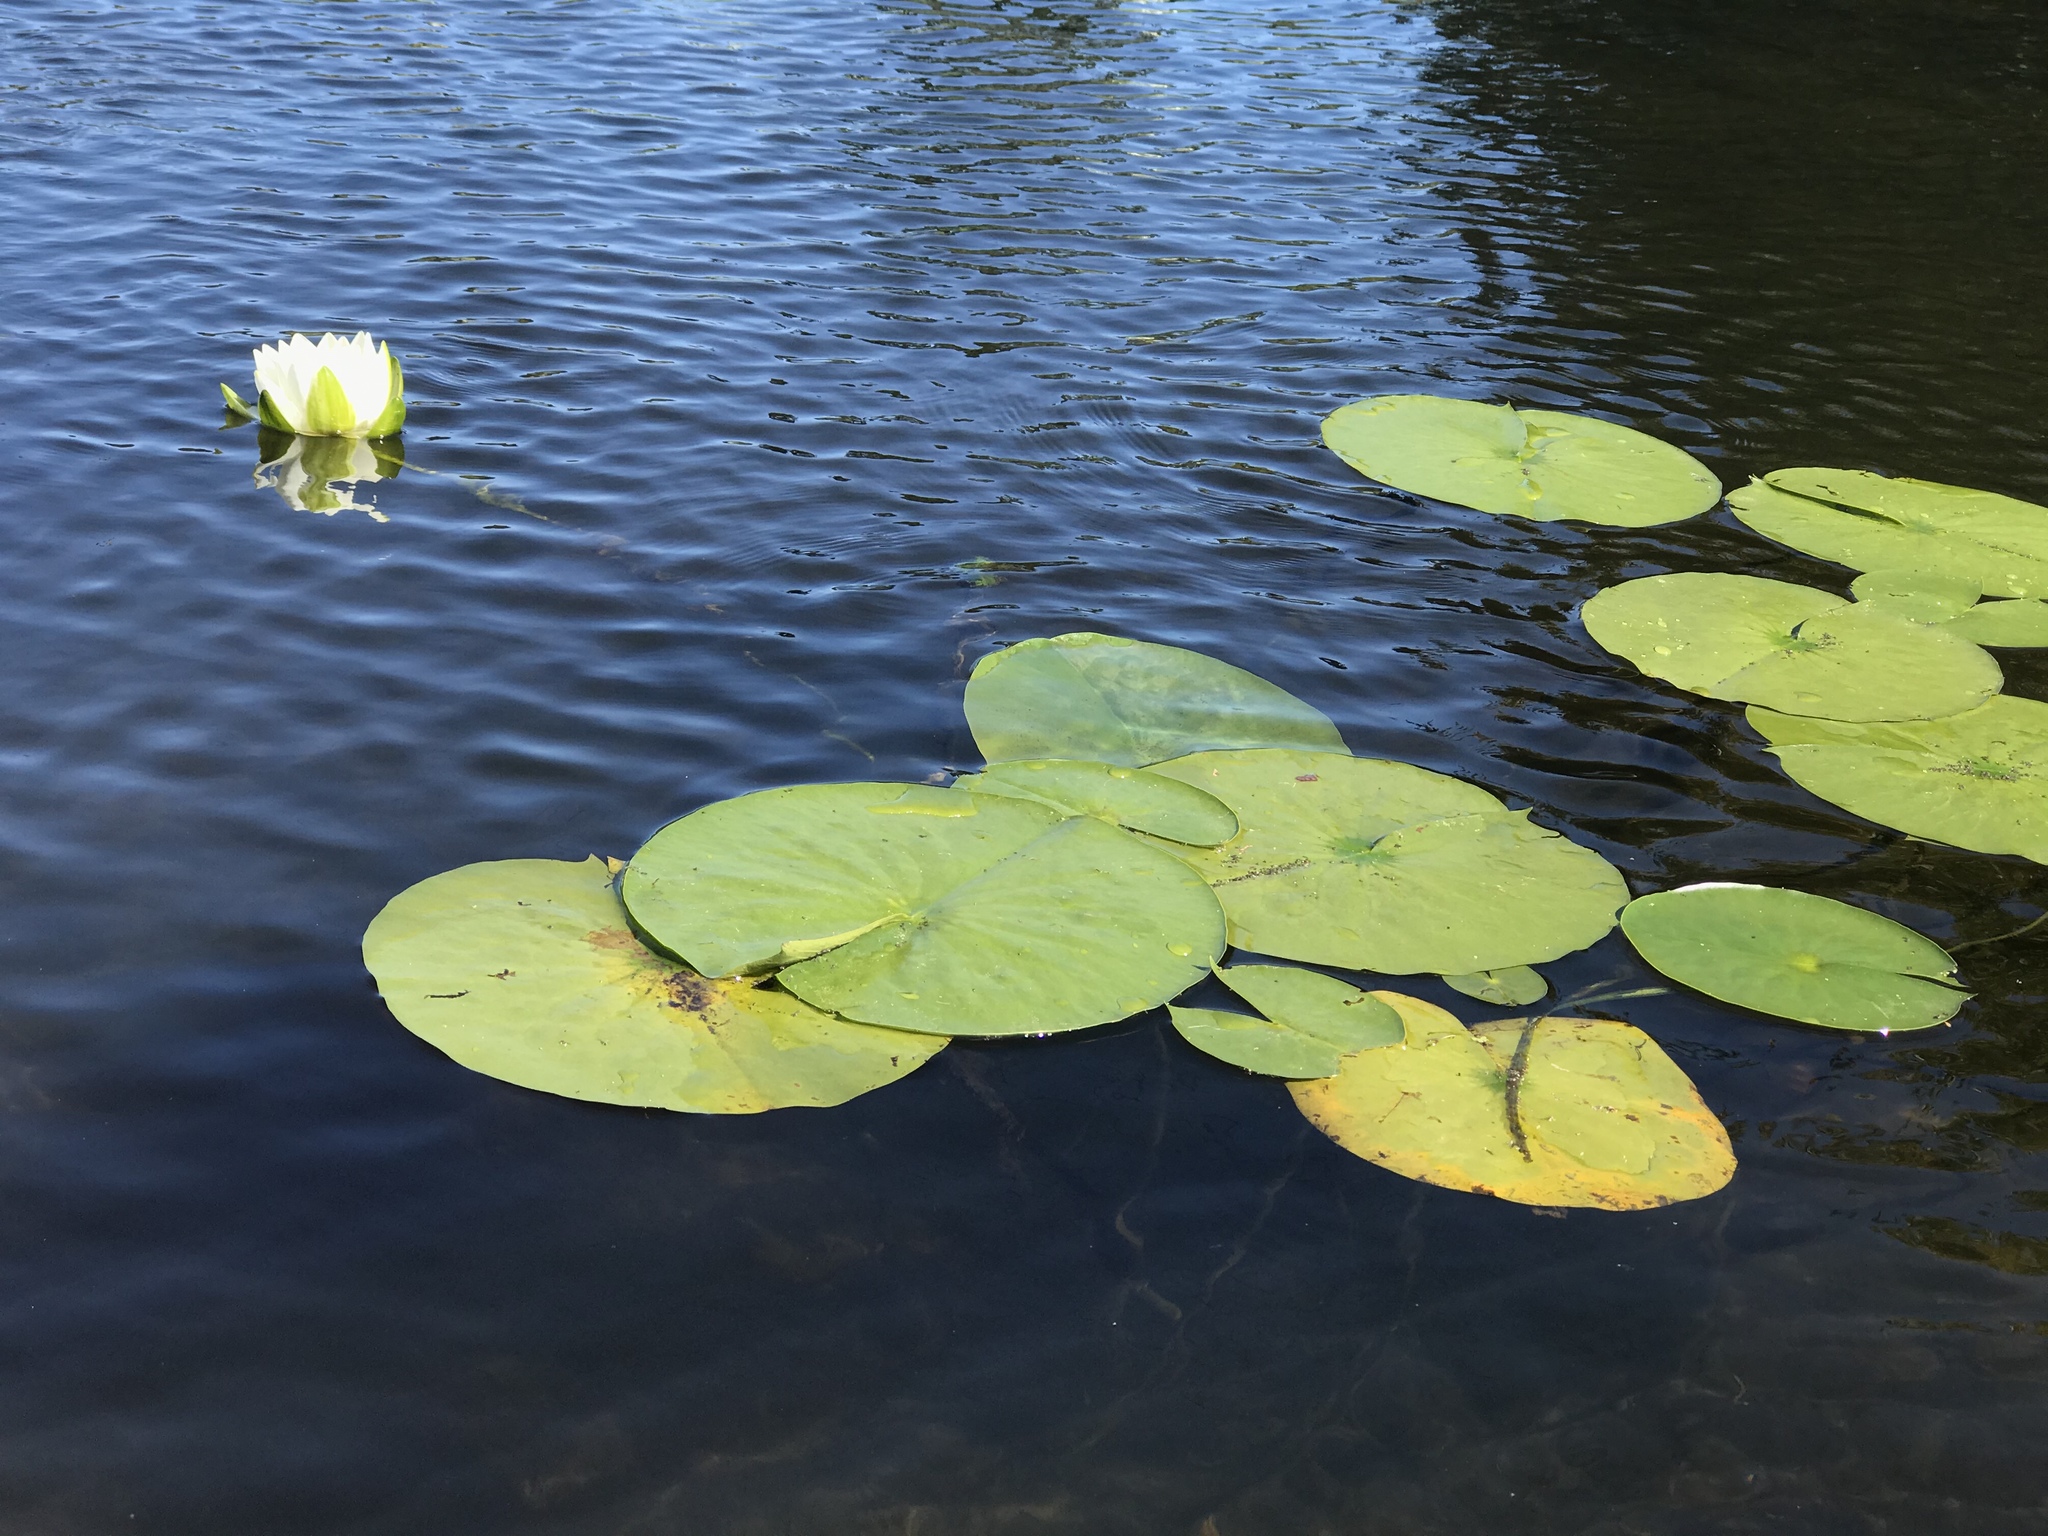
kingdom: Plantae
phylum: Tracheophyta
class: Magnoliopsida
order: Nymphaeales
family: Nymphaeaceae
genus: Nymphaea
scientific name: Nymphaea odorata
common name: Fragrant water-lily
